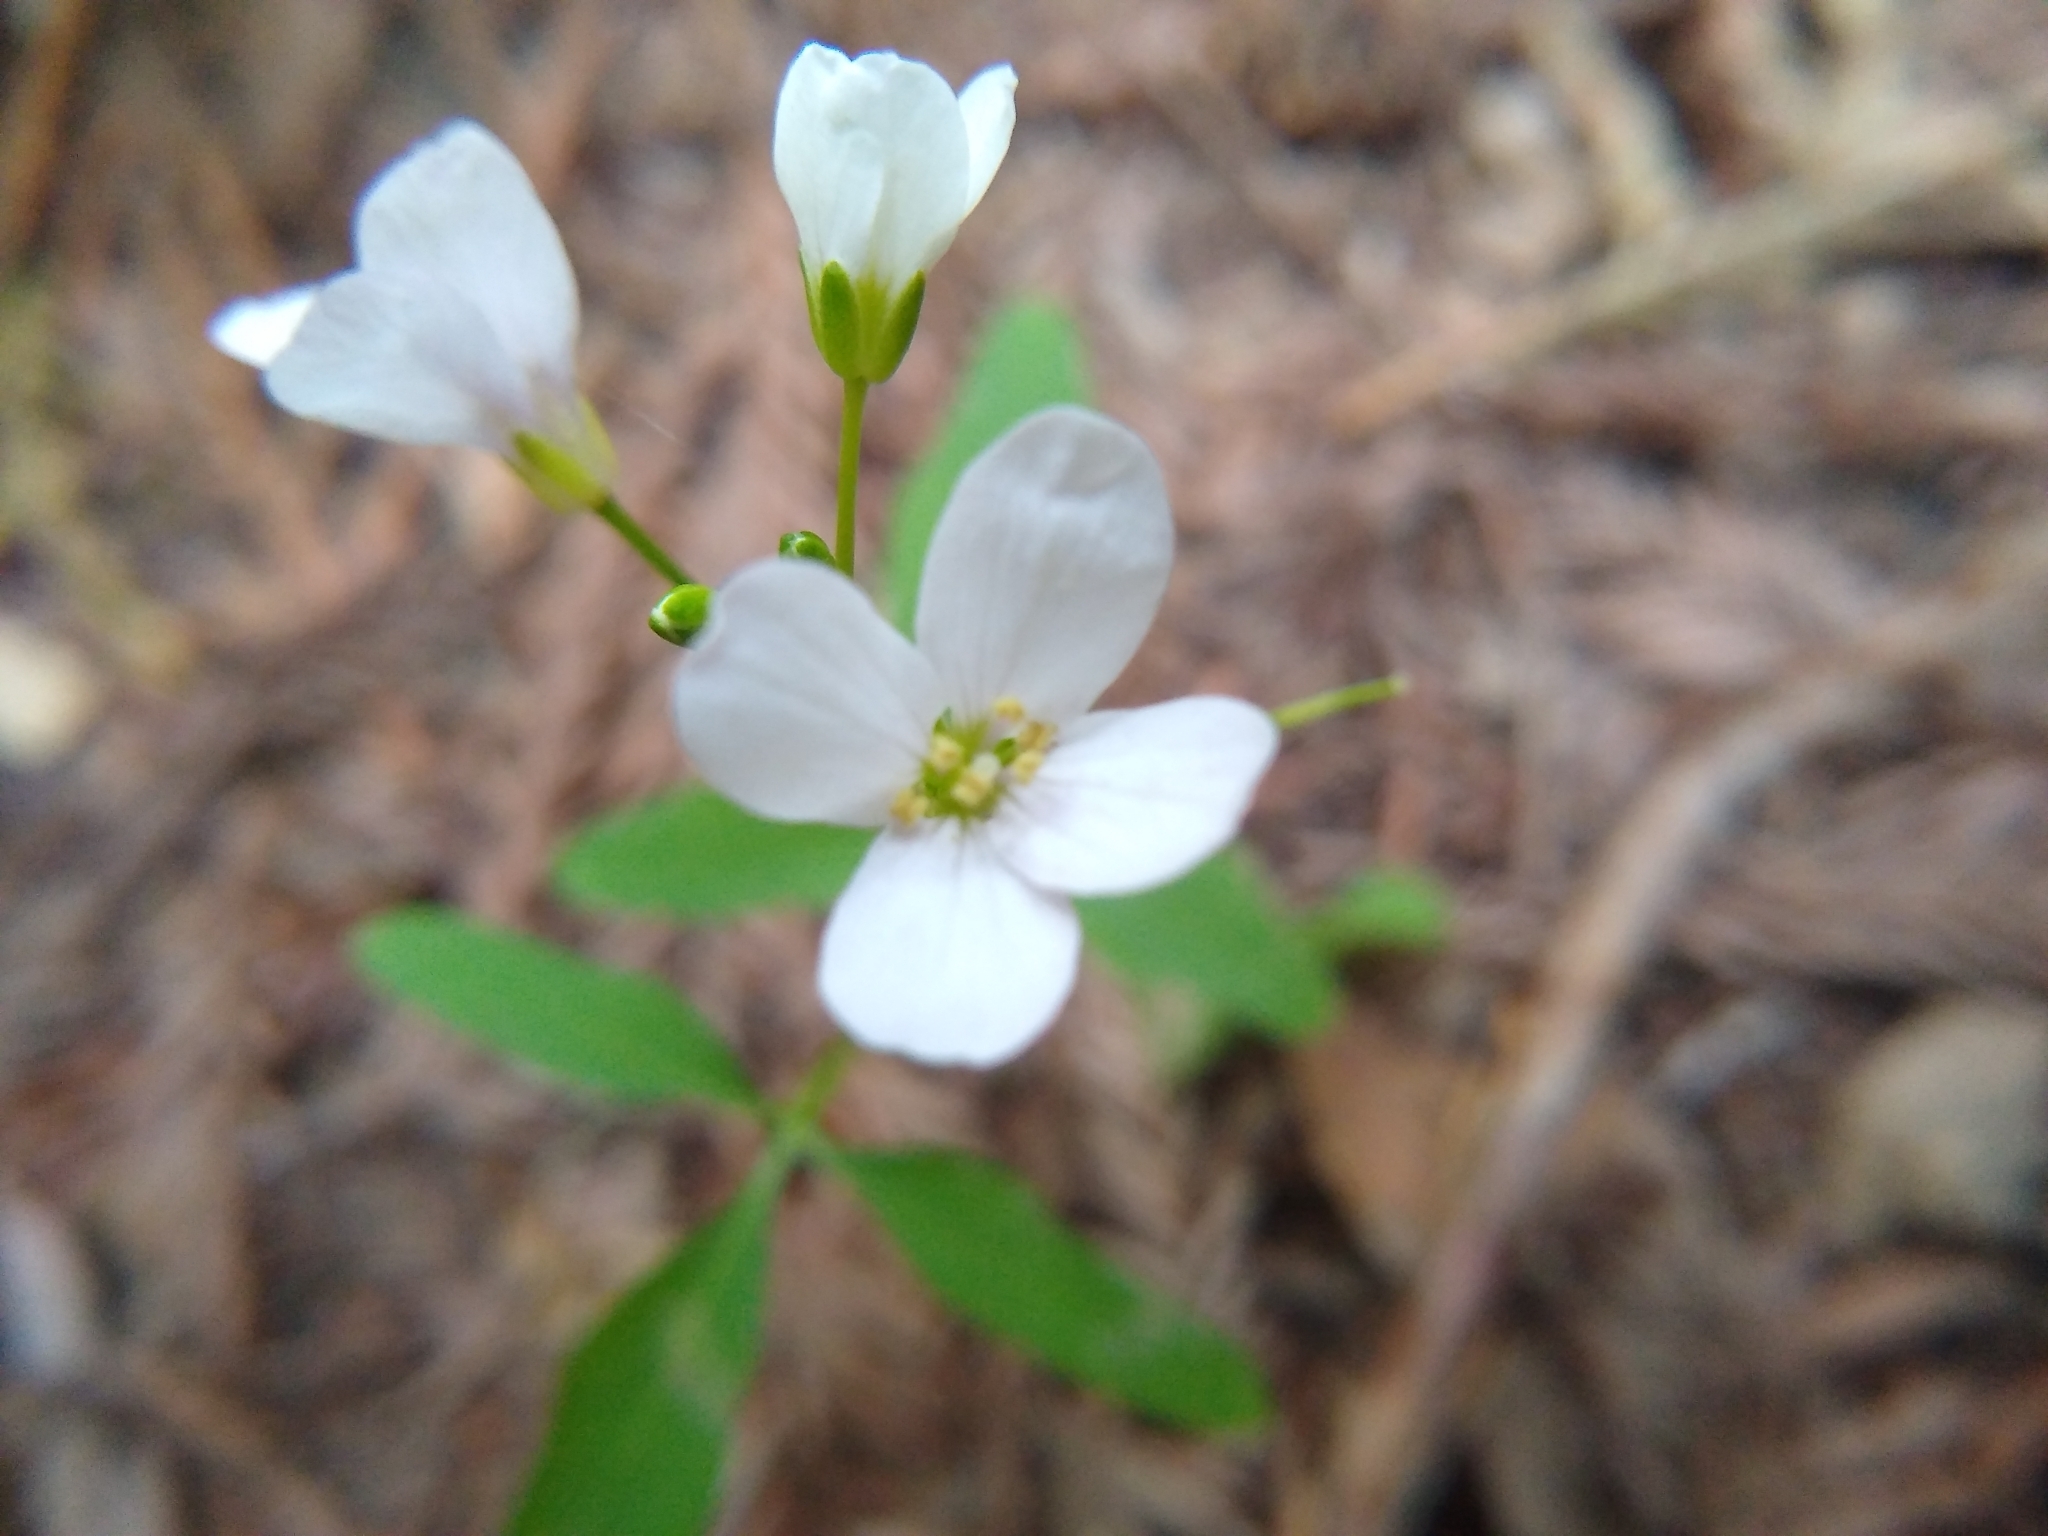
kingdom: Plantae
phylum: Tracheophyta
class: Magnoliopsida
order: Brassicales
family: Brassicaceae
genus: Cardamine
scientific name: Cardamine californica
